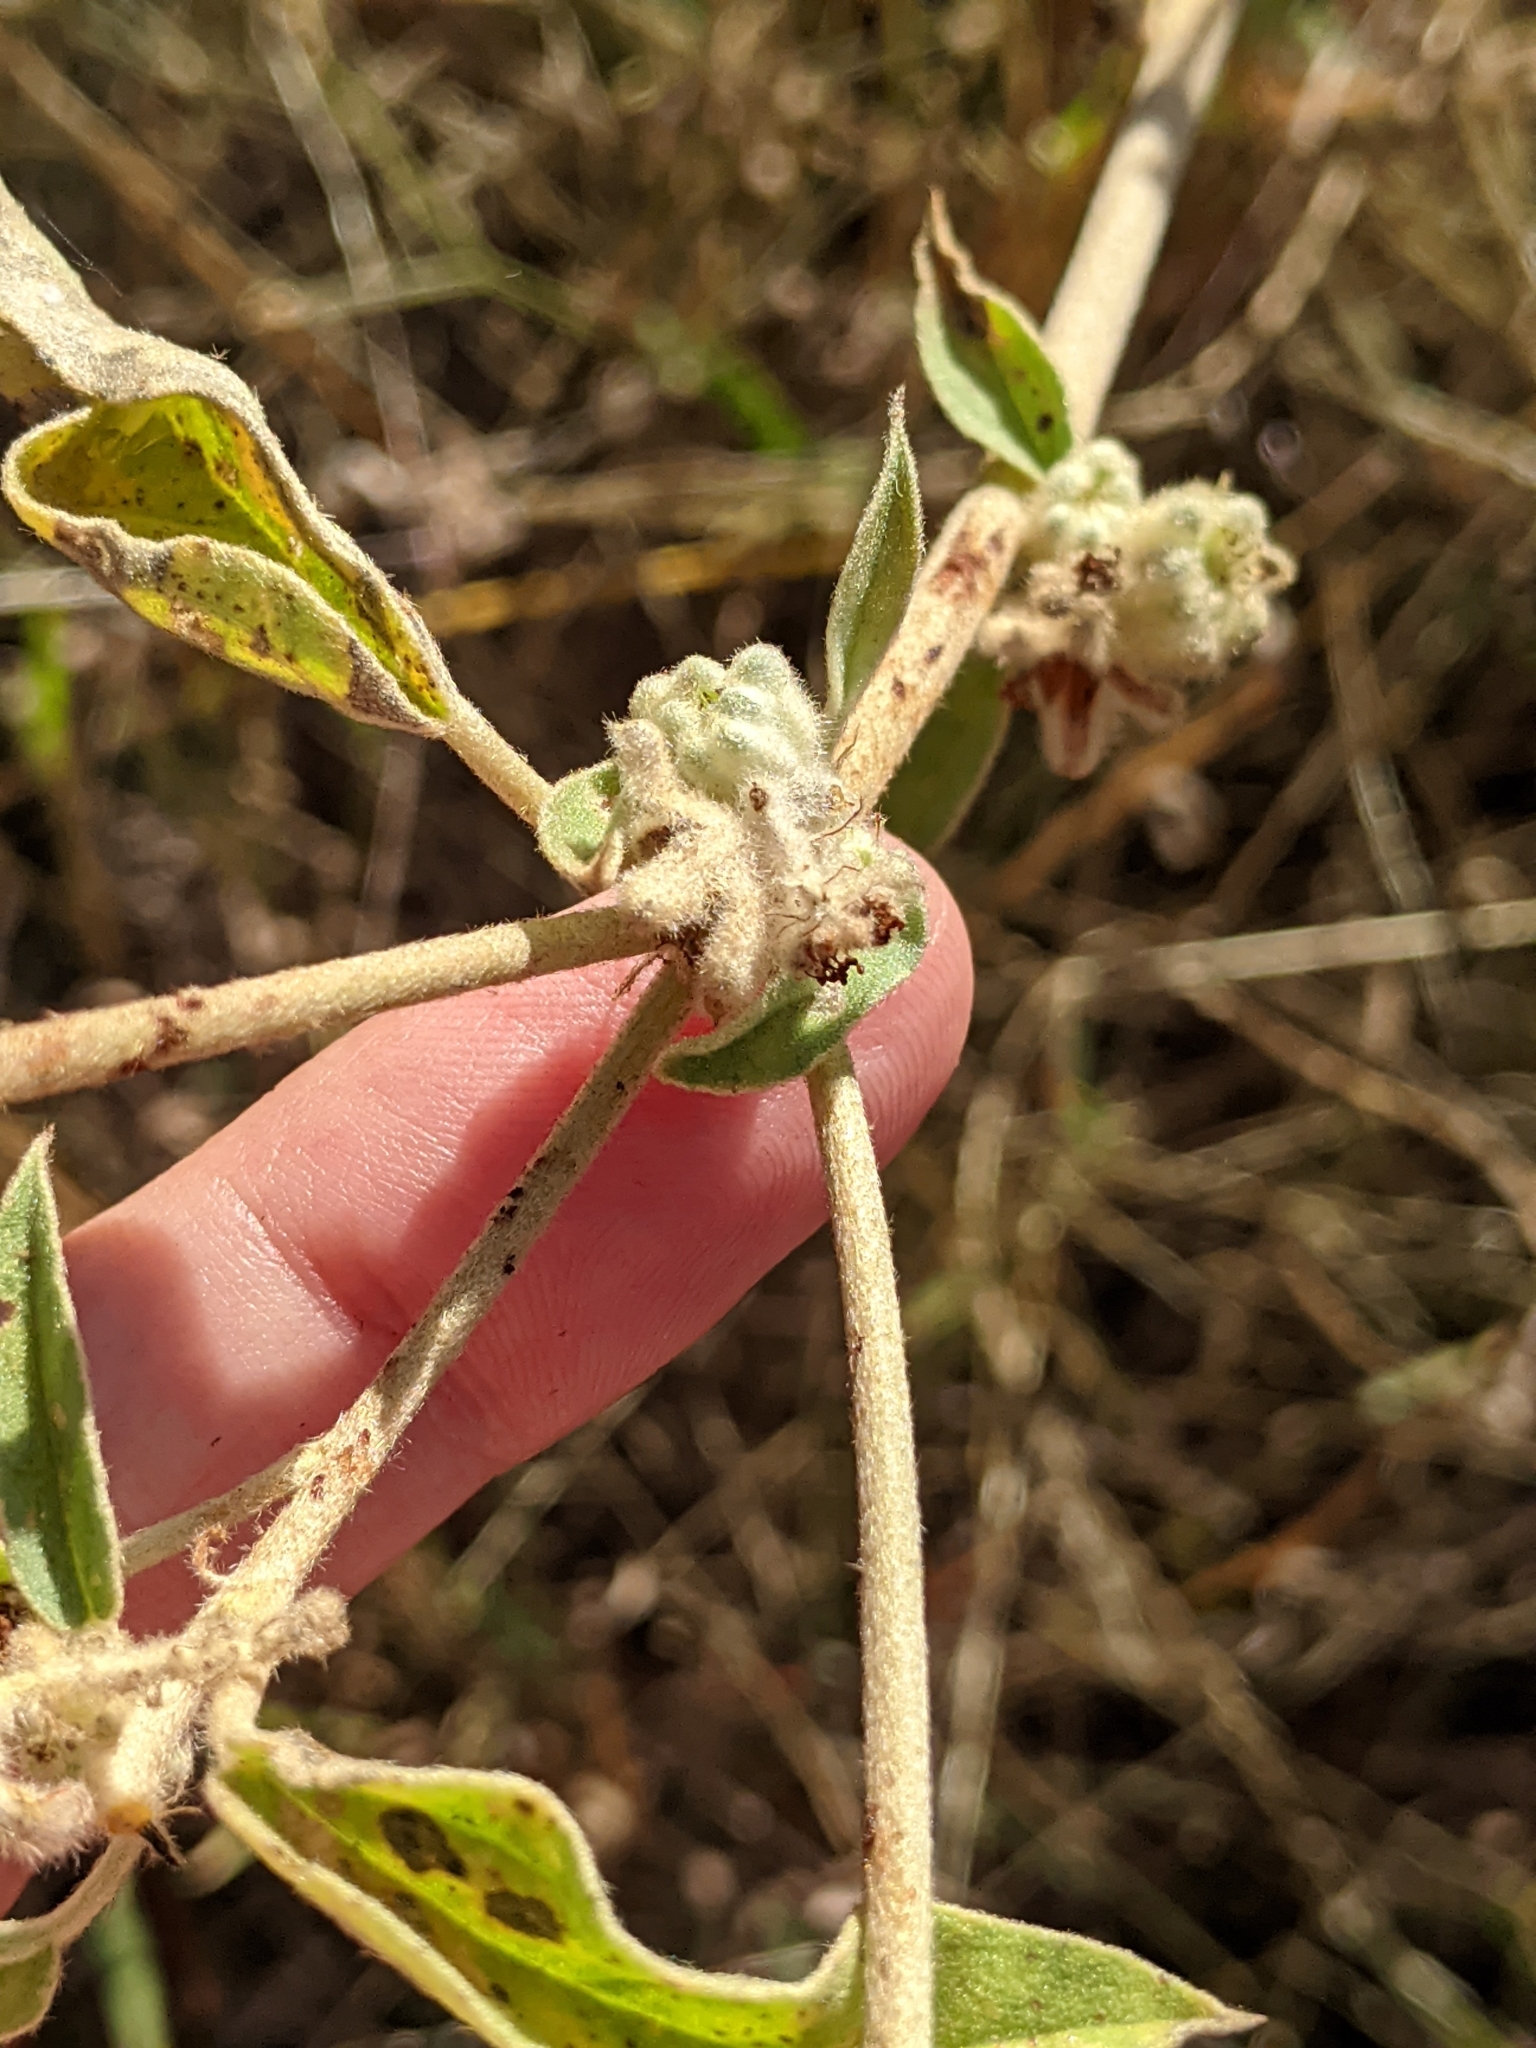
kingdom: Plantae
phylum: Tracheophyta
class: Magnoliopsida
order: Malpighiales
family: Euphorbiaceae
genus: Croton
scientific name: Croton heptalon
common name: Woolly croton
